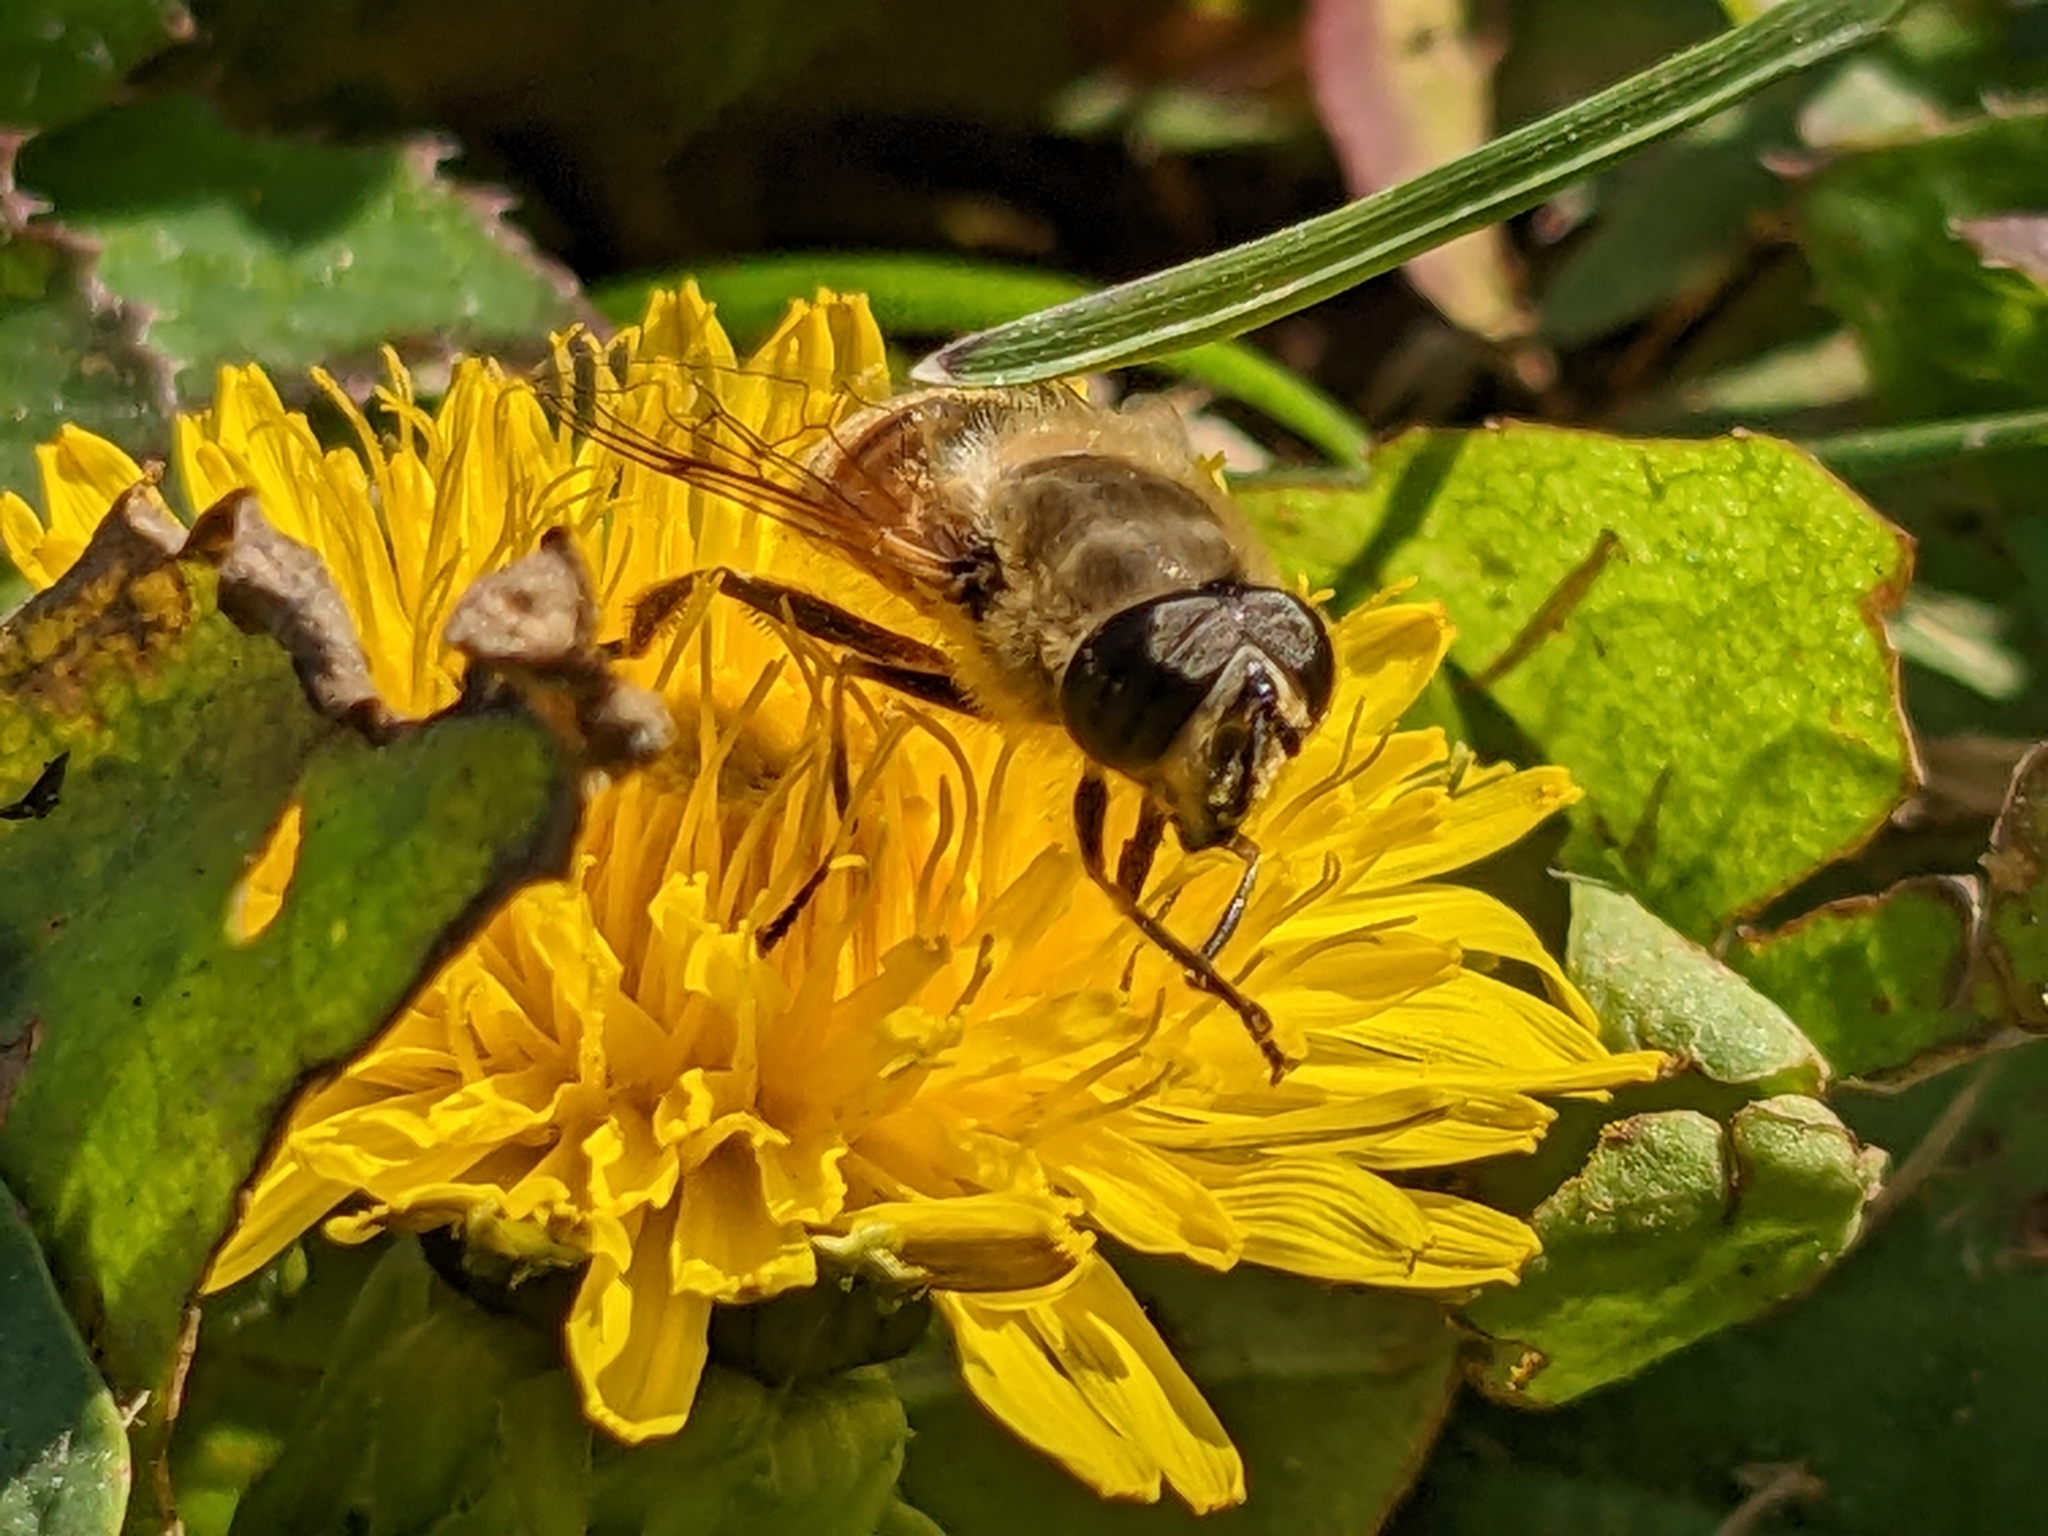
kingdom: Animalia
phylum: Arthropoda
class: Insecta
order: Diptera
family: Syrphidae
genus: Eristalis
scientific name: Eristalis tenax
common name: Drone fly
